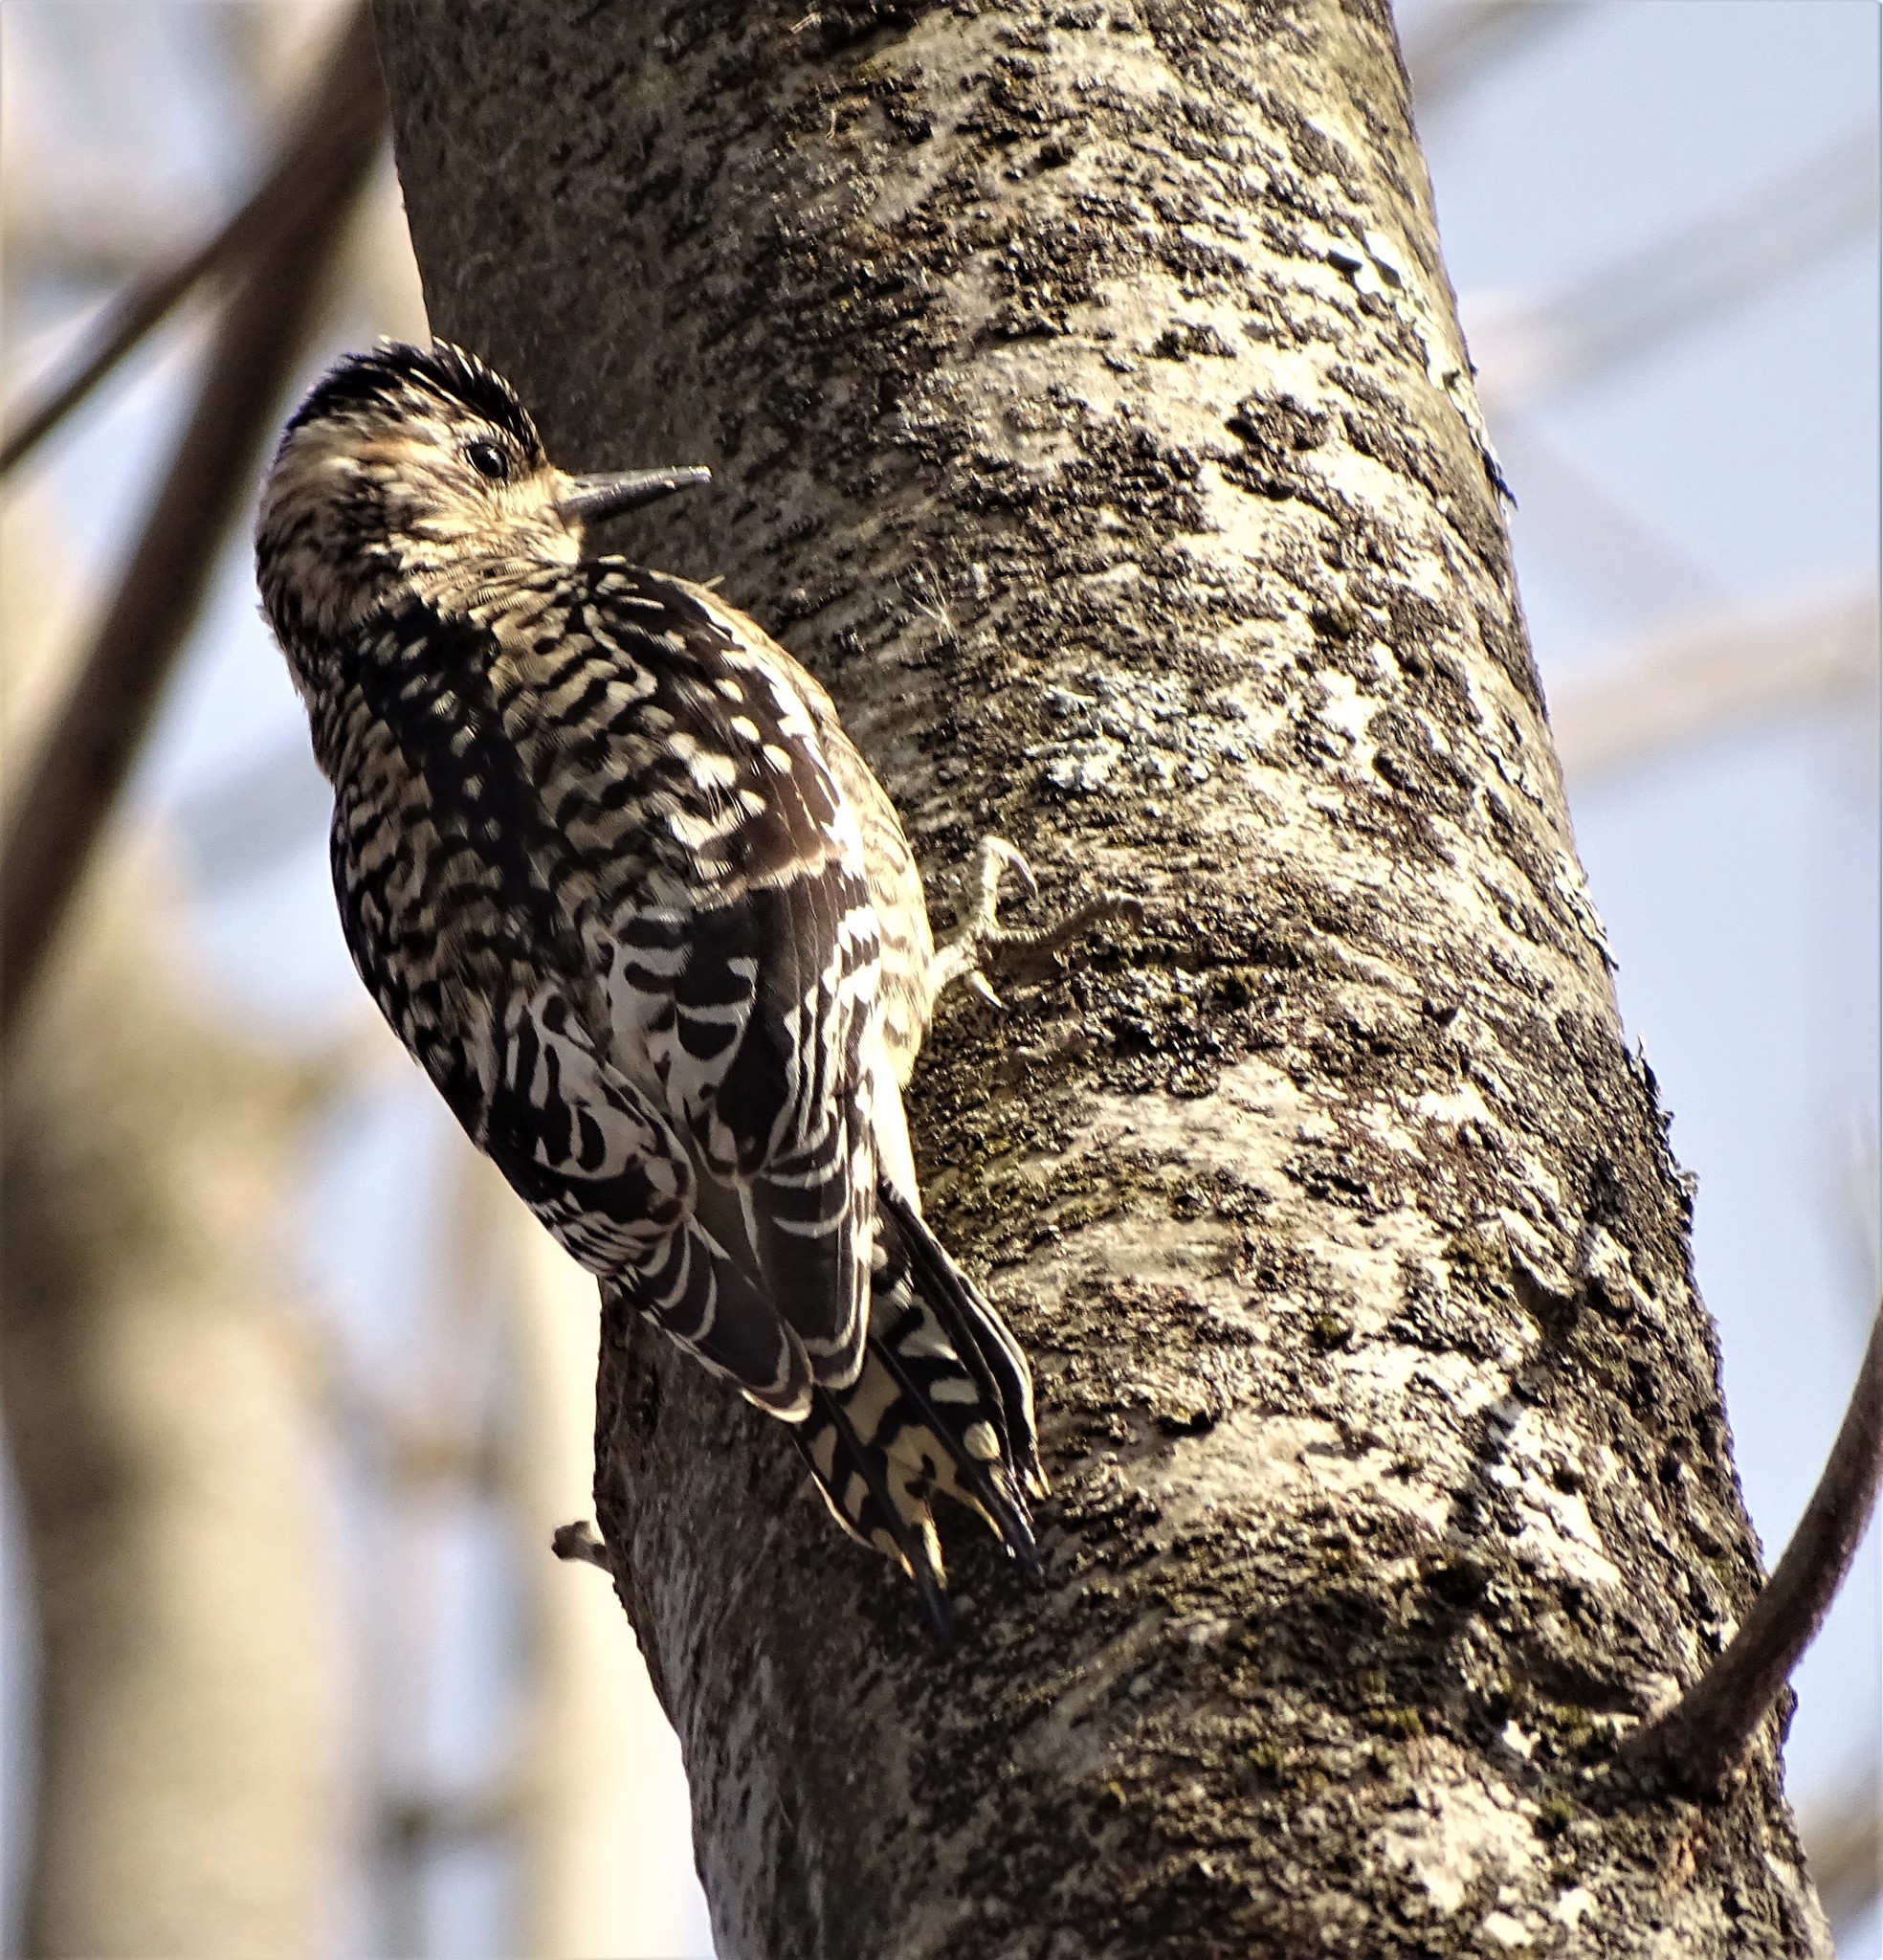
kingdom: Animalia
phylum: Chordata
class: Aves
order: Piciformes
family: Picidae
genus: Sphyrapicus
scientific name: Sphyrapicus varius
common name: Yellow-bellied sapsucker
